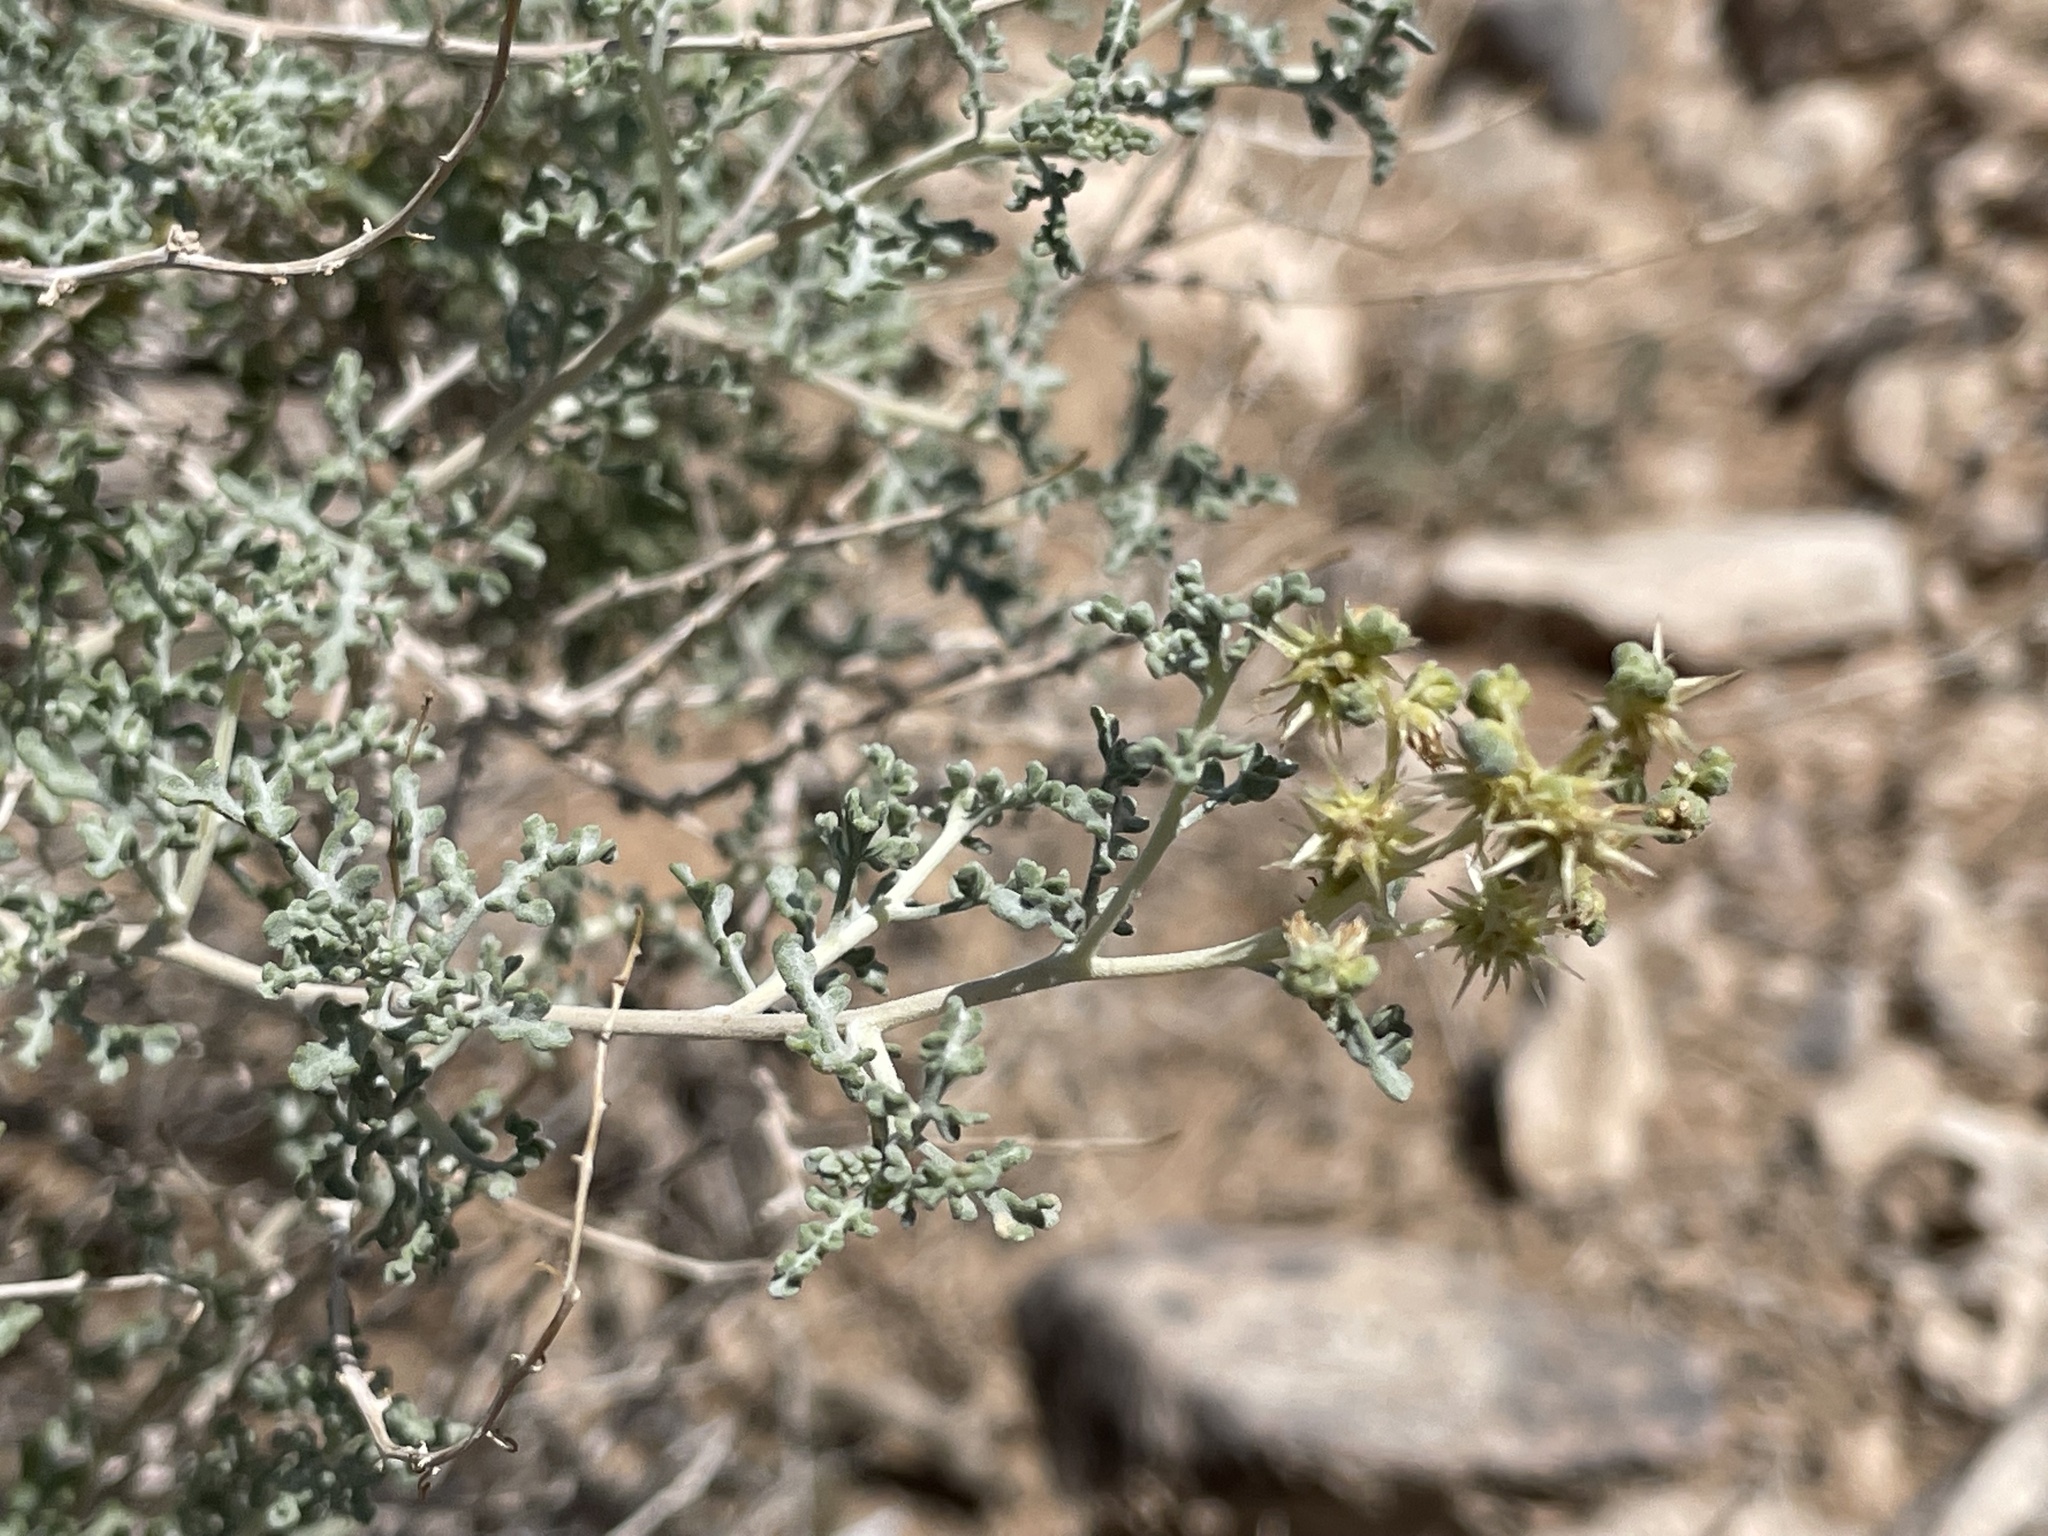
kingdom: Plantae
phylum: Tracheophyta
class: Magnoliopsida
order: Asterales
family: Asteraceae
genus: Ambrosia
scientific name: Ambrosia dumosa
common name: Bur-sage
